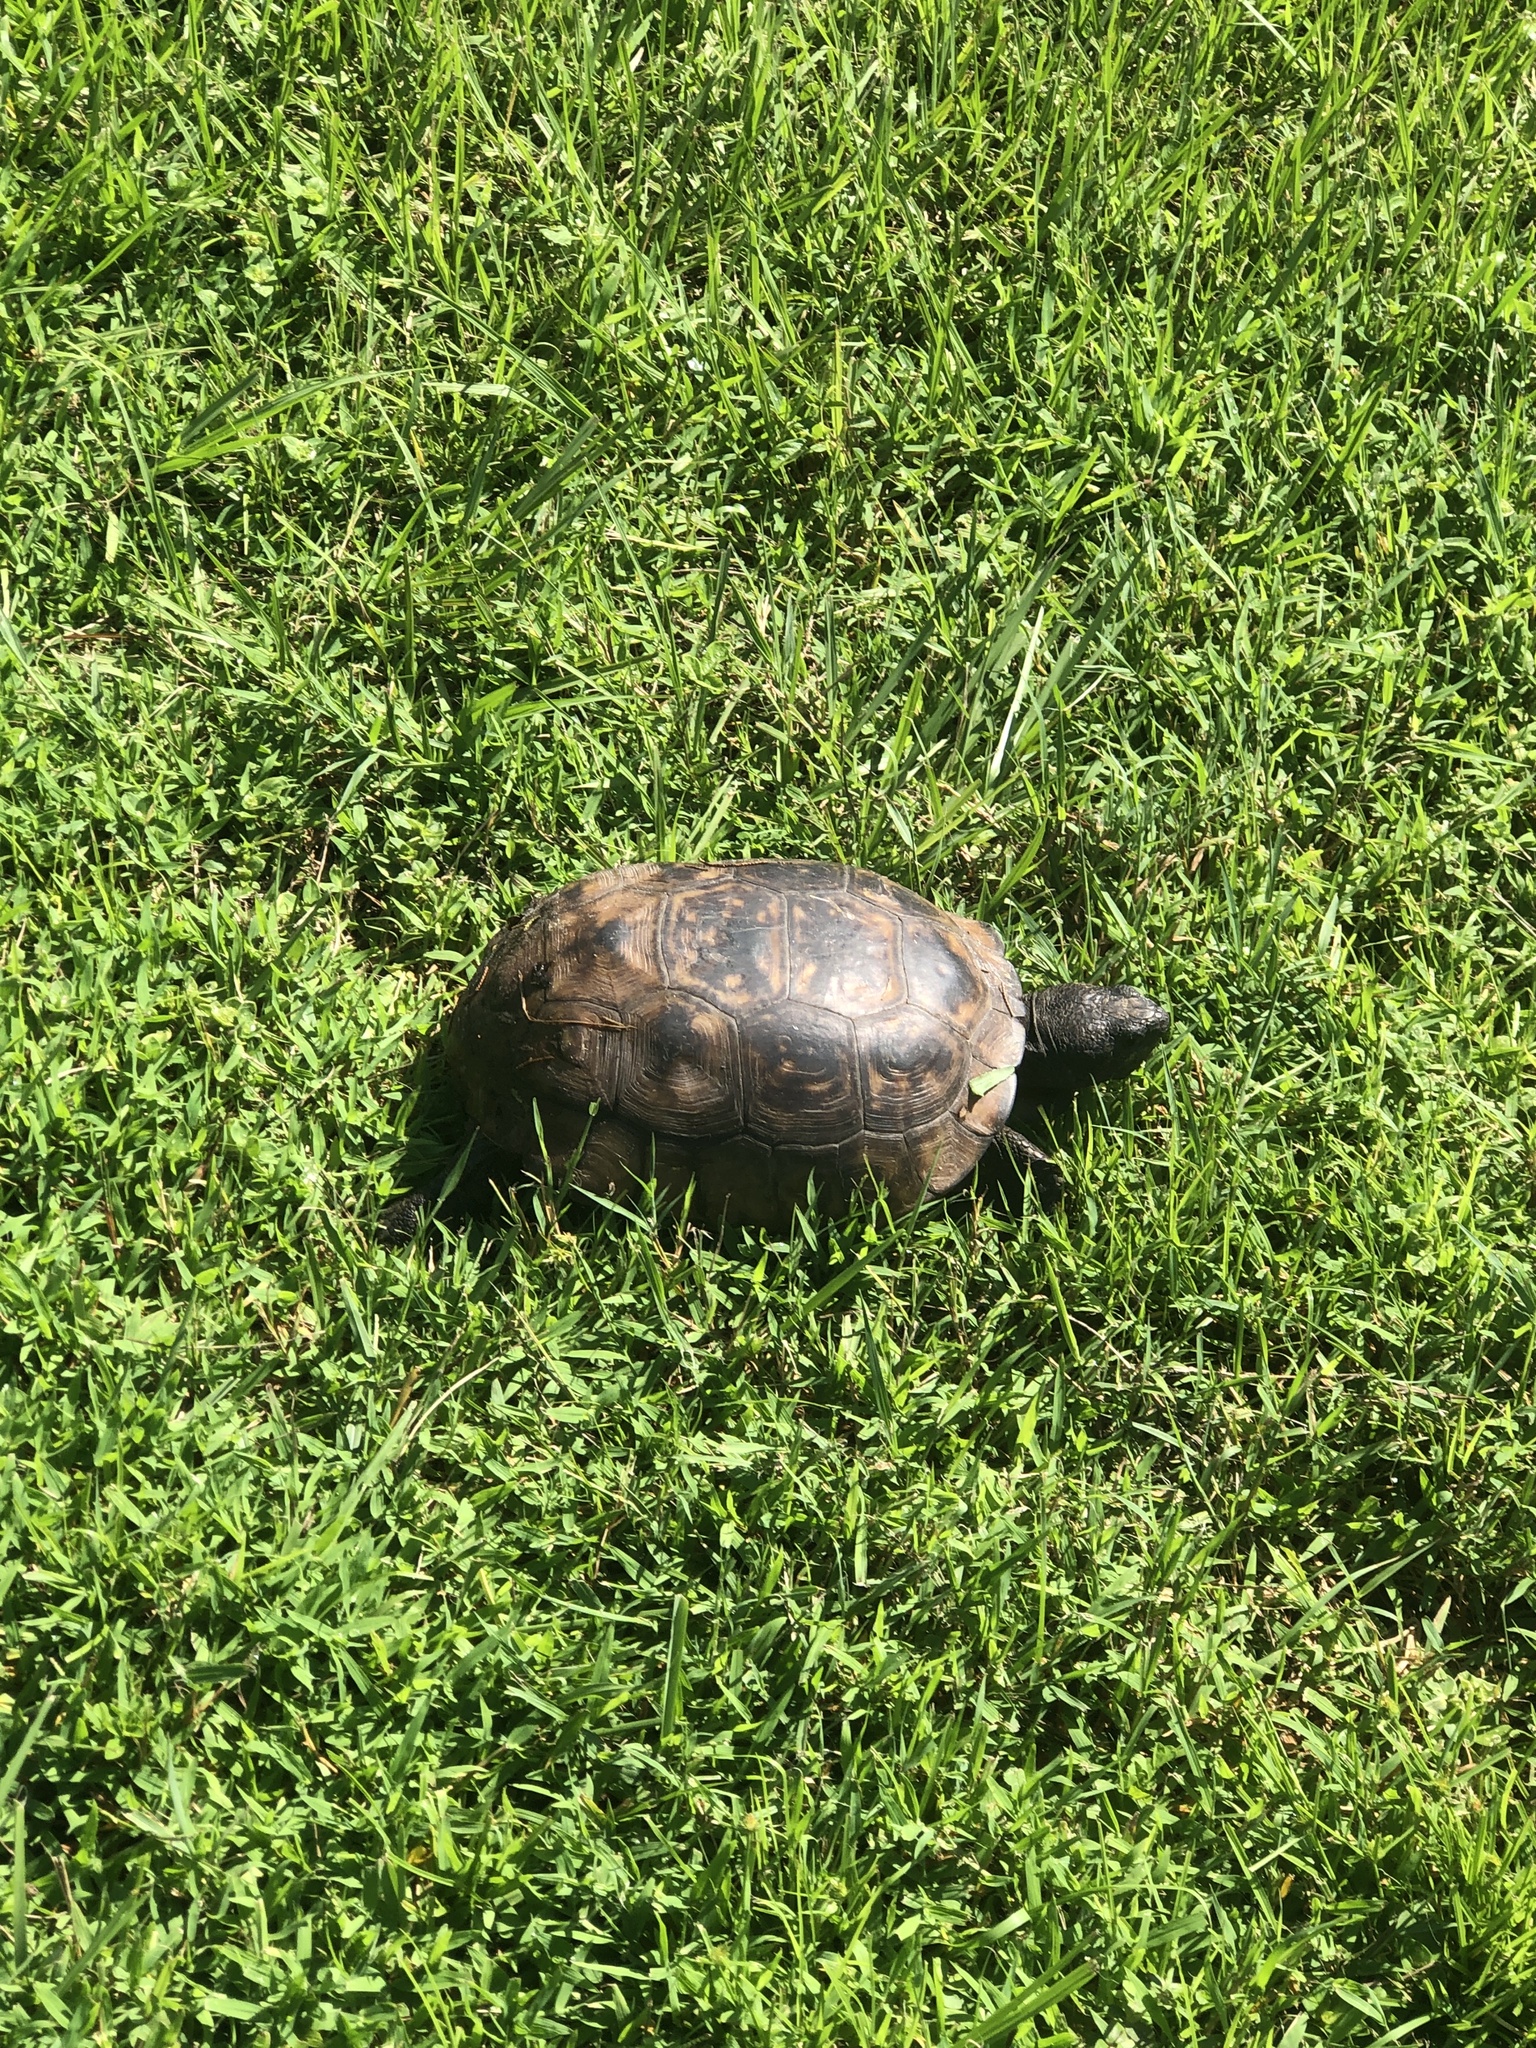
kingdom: Animalia
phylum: Chordata
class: Testudines
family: Testudinidae
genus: Gopherus
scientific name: Gopherus polyphemus
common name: Florida gopher tortoise
